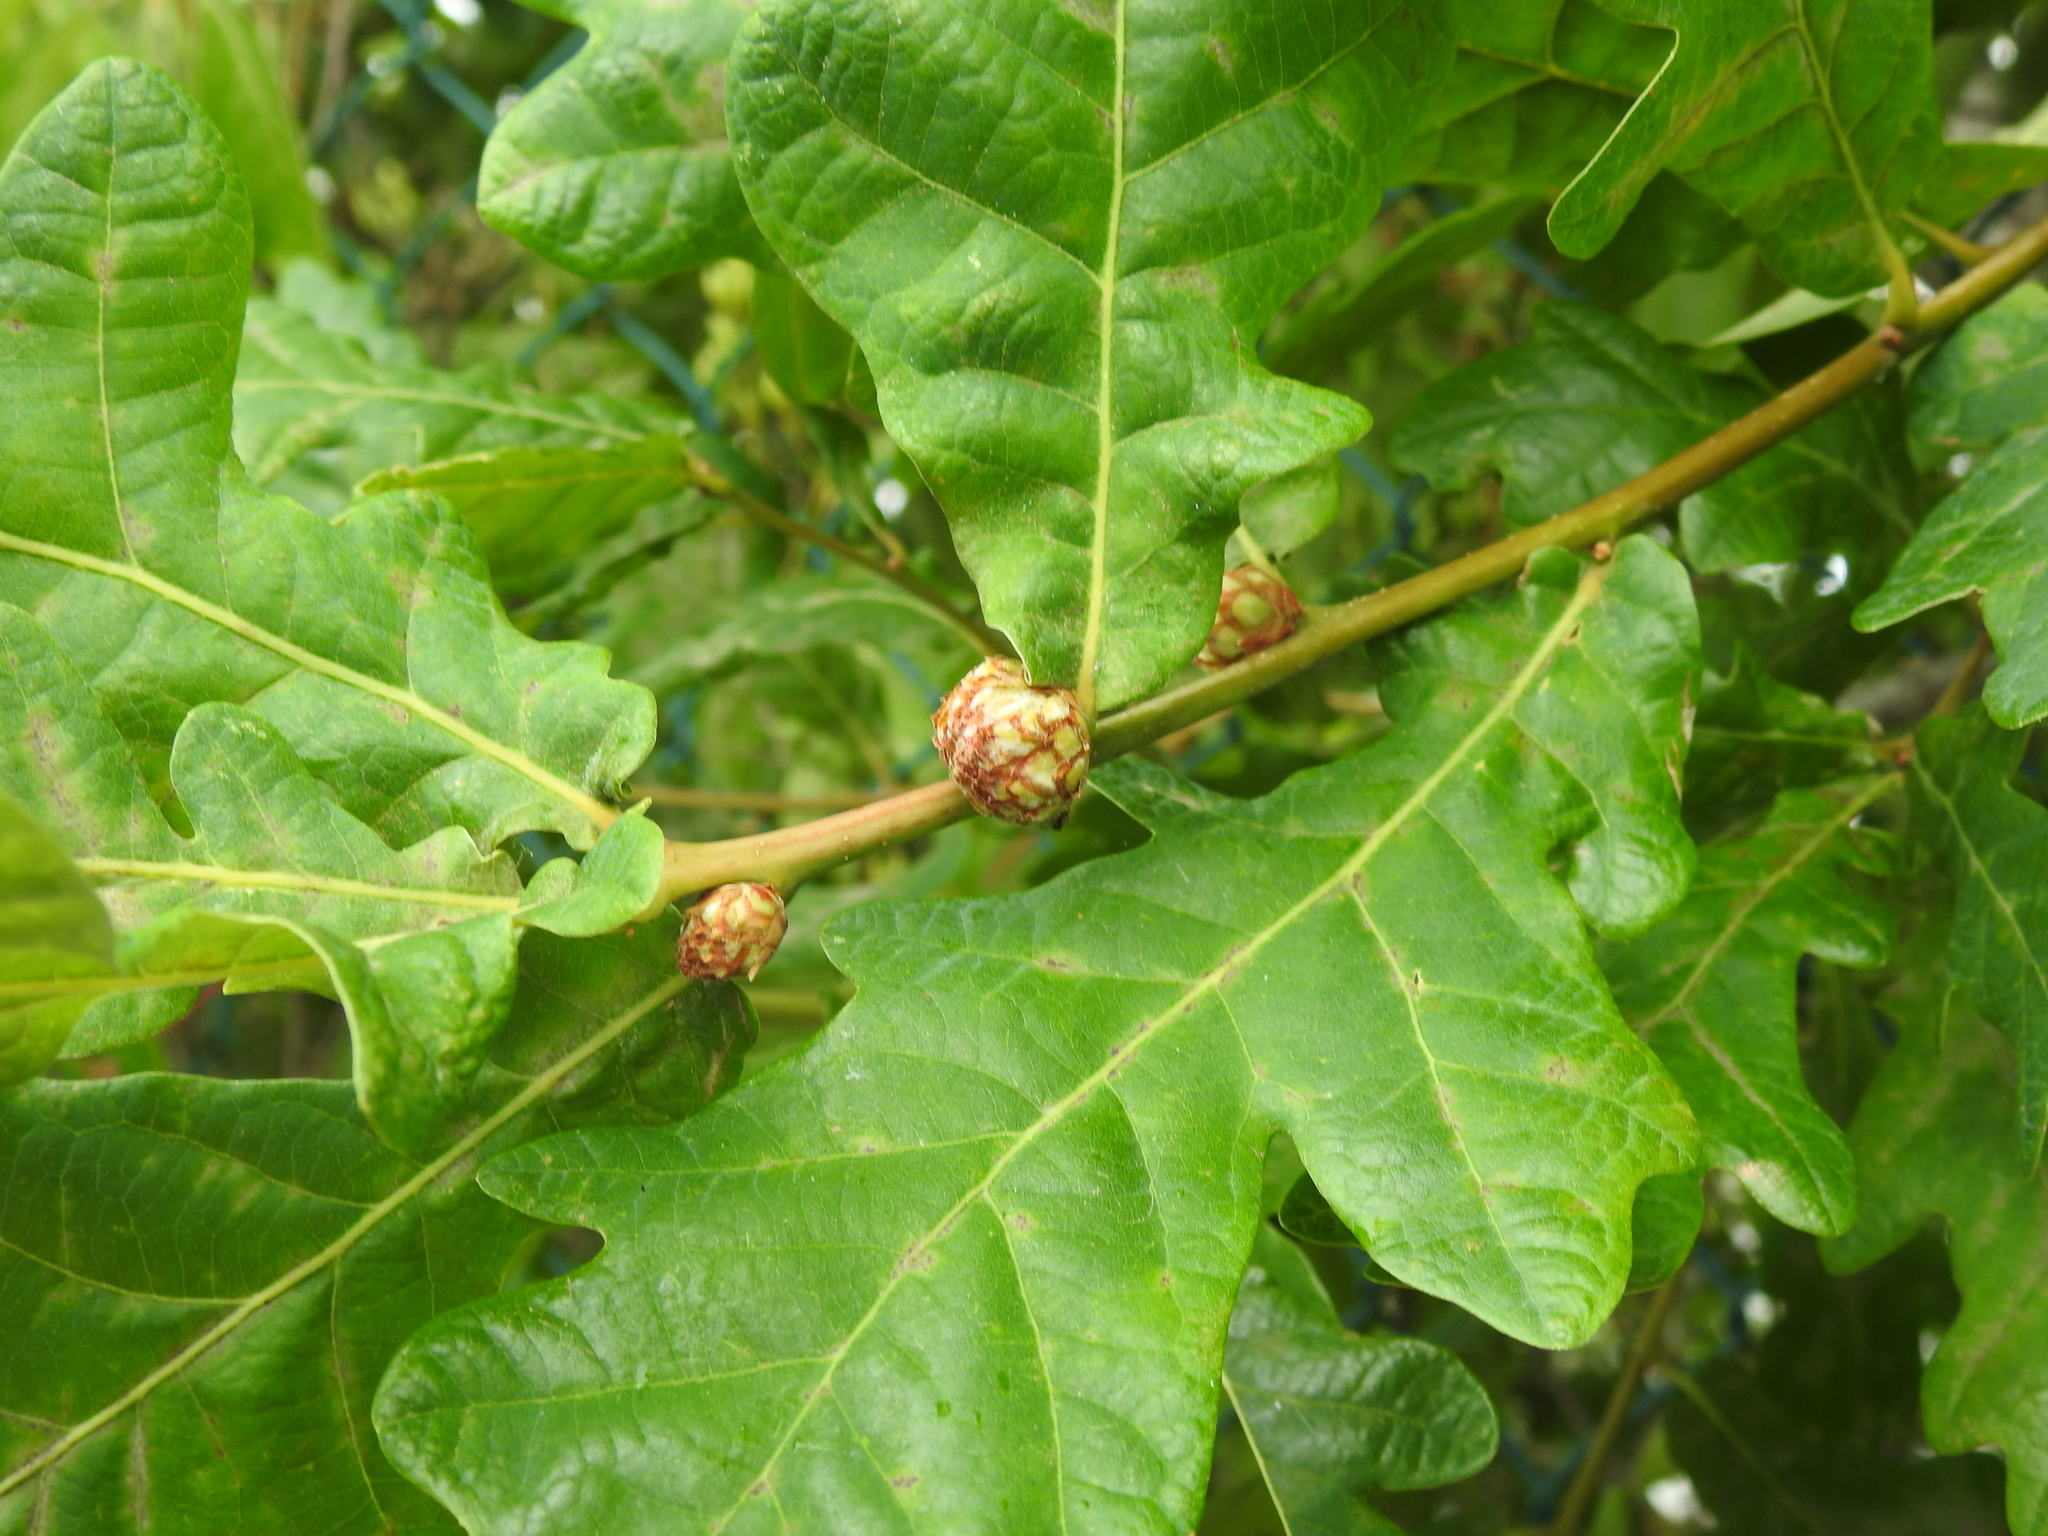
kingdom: Animalia
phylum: Arthropoda
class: Insecta
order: Hymenoptera
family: Cynipidae
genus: Andricus
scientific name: Andricus foecundatrix
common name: Artichoke gall
